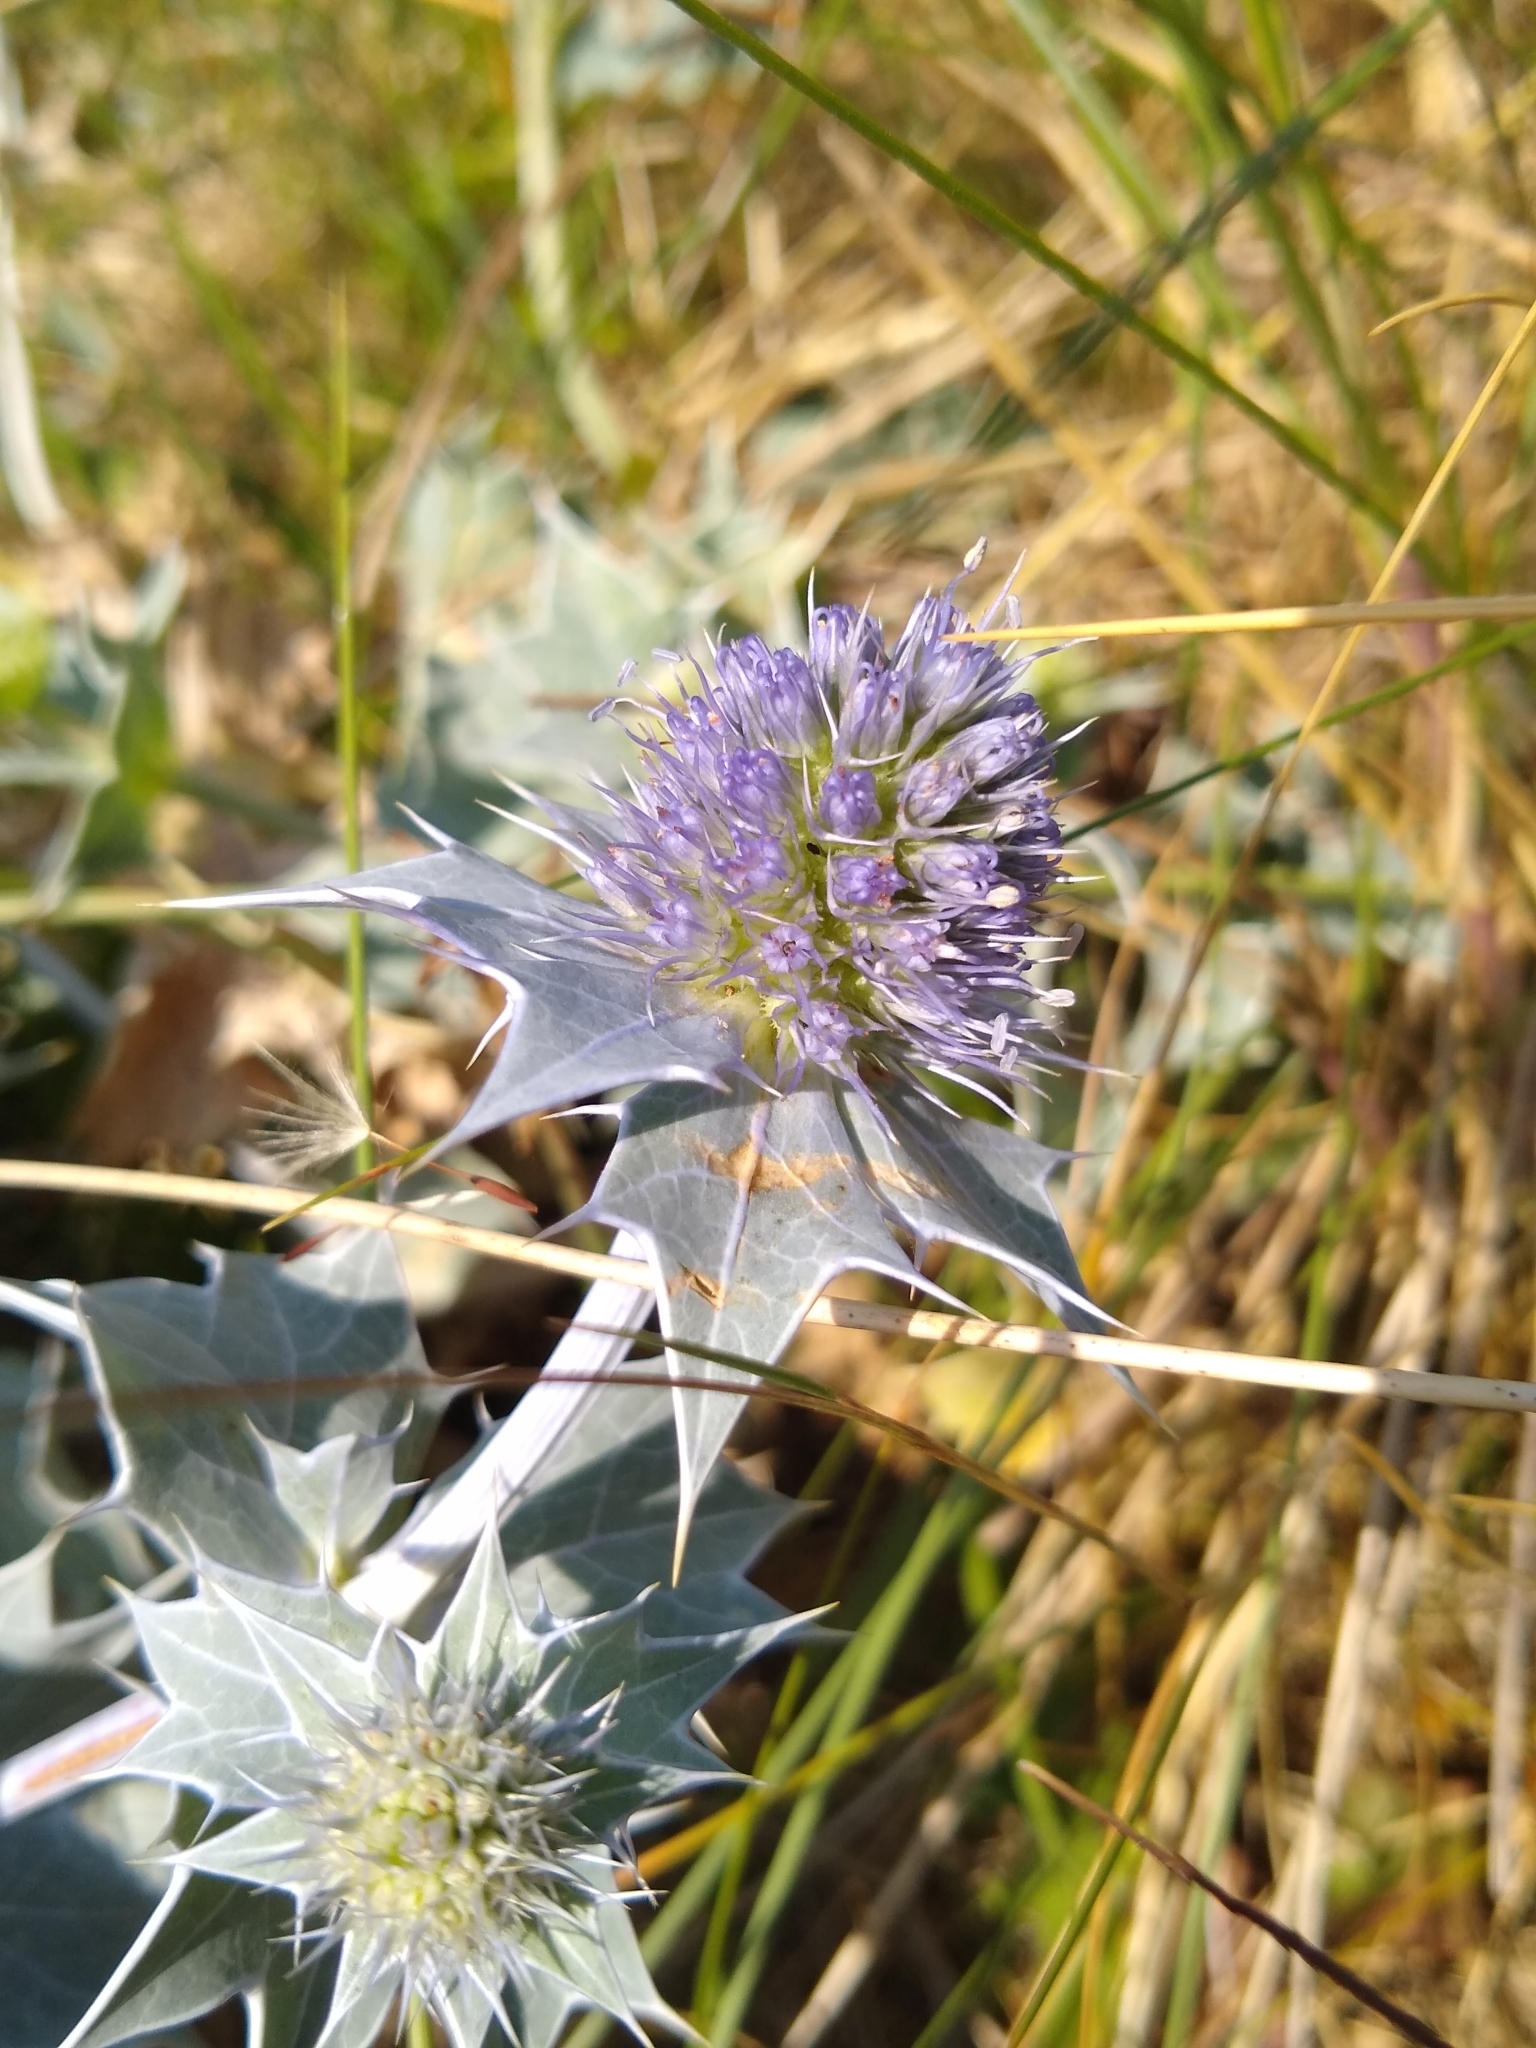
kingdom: Plantae
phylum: Tracheophyta
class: Magnoliopsida
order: Apiales
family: Apiaceae
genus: Eryngium
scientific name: Eryngium maritimum
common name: Sea-holly
